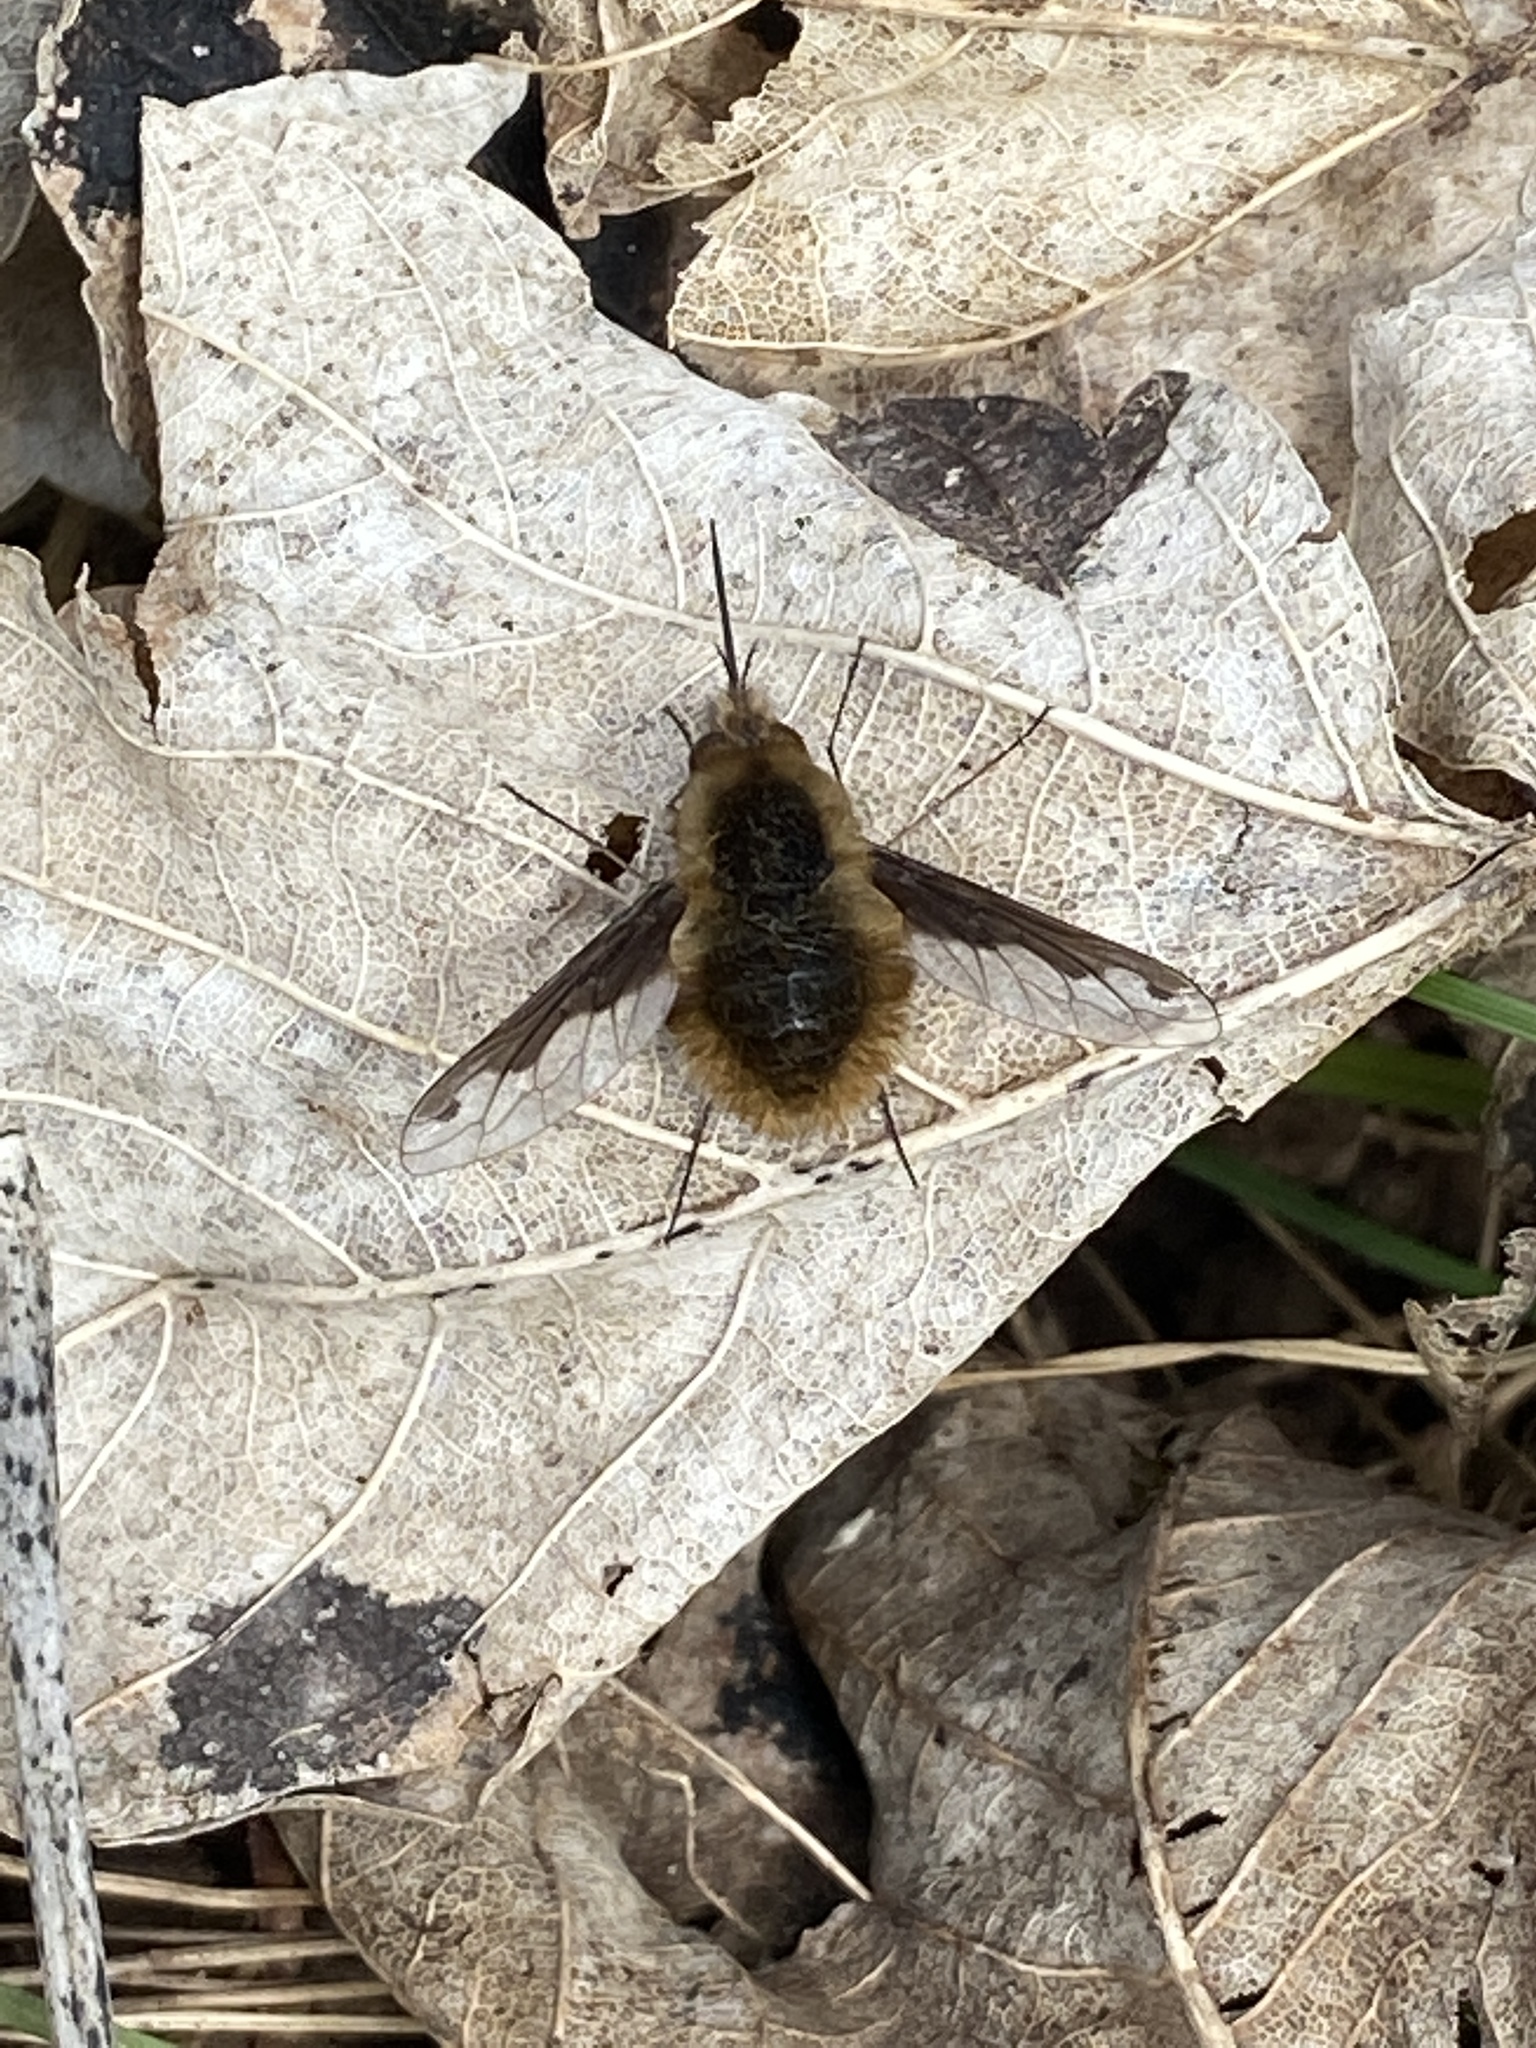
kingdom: Animalia
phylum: Arthropoda
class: Insecta
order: Diptera
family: Bombyliidae
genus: Bombylius
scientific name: Bombylius major
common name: Bee fly
